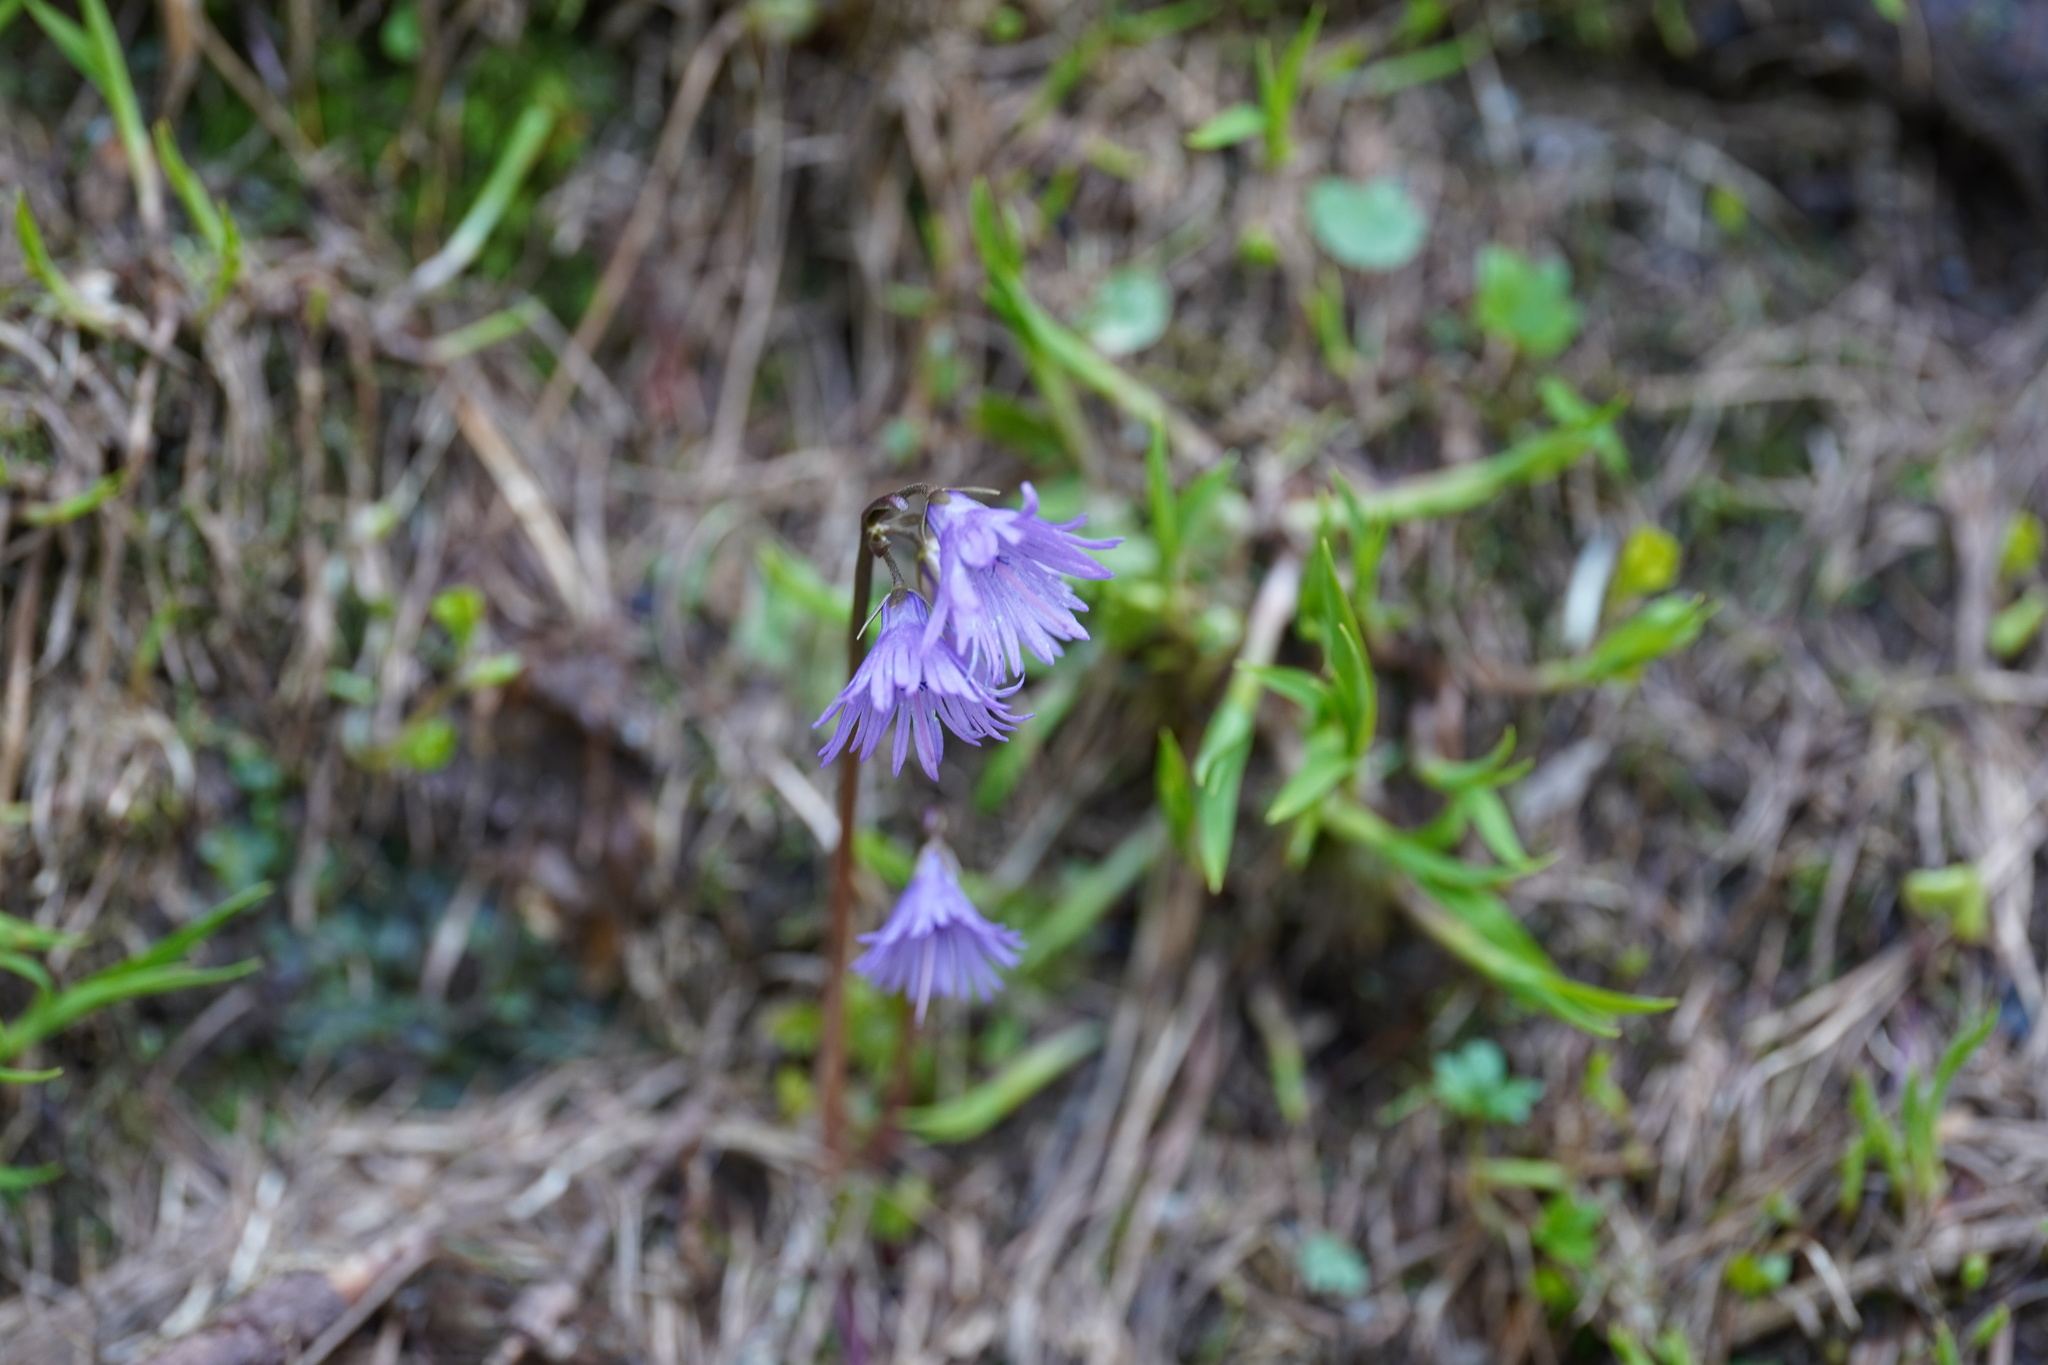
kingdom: Plantae
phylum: Tracheophyta
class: Magnoliopsida
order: Ericales
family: Primulaceae
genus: Soldanella
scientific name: Soldanella alpina
